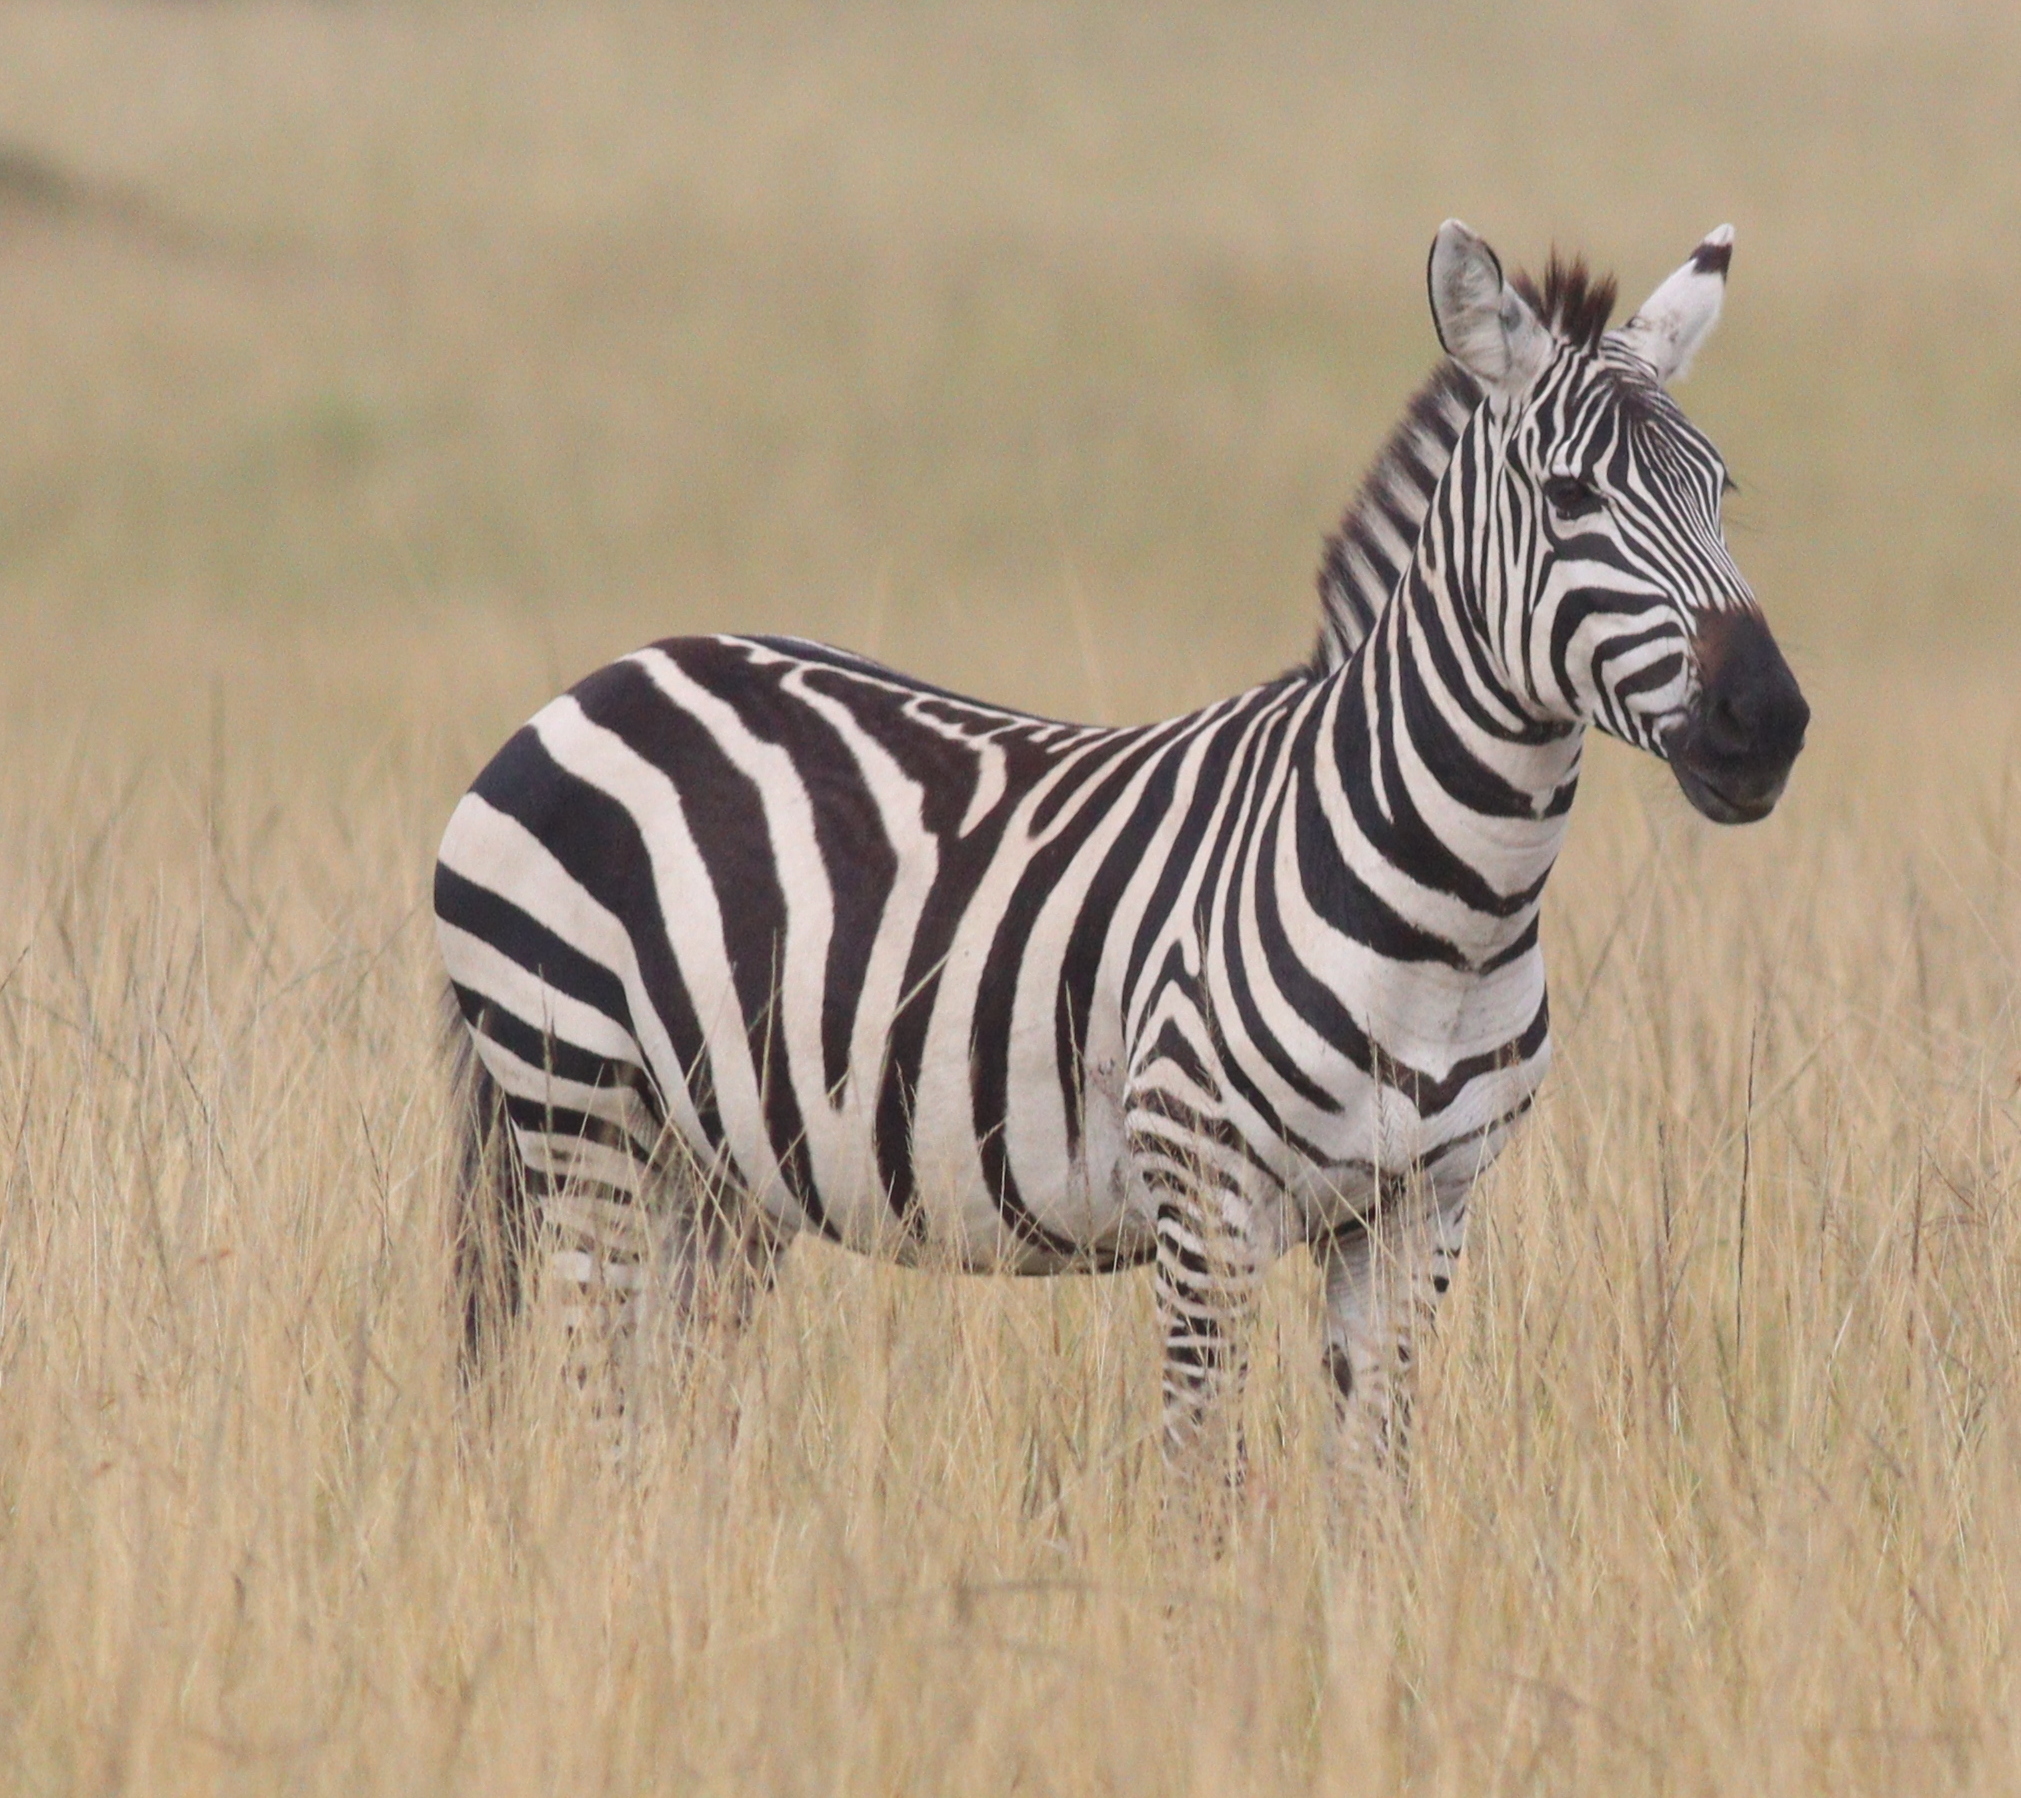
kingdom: Animalia
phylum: Chordata
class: Mammalia
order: Perissodactyla
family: Equidae
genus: Equus
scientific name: Equus quagga
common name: Plains zebra
